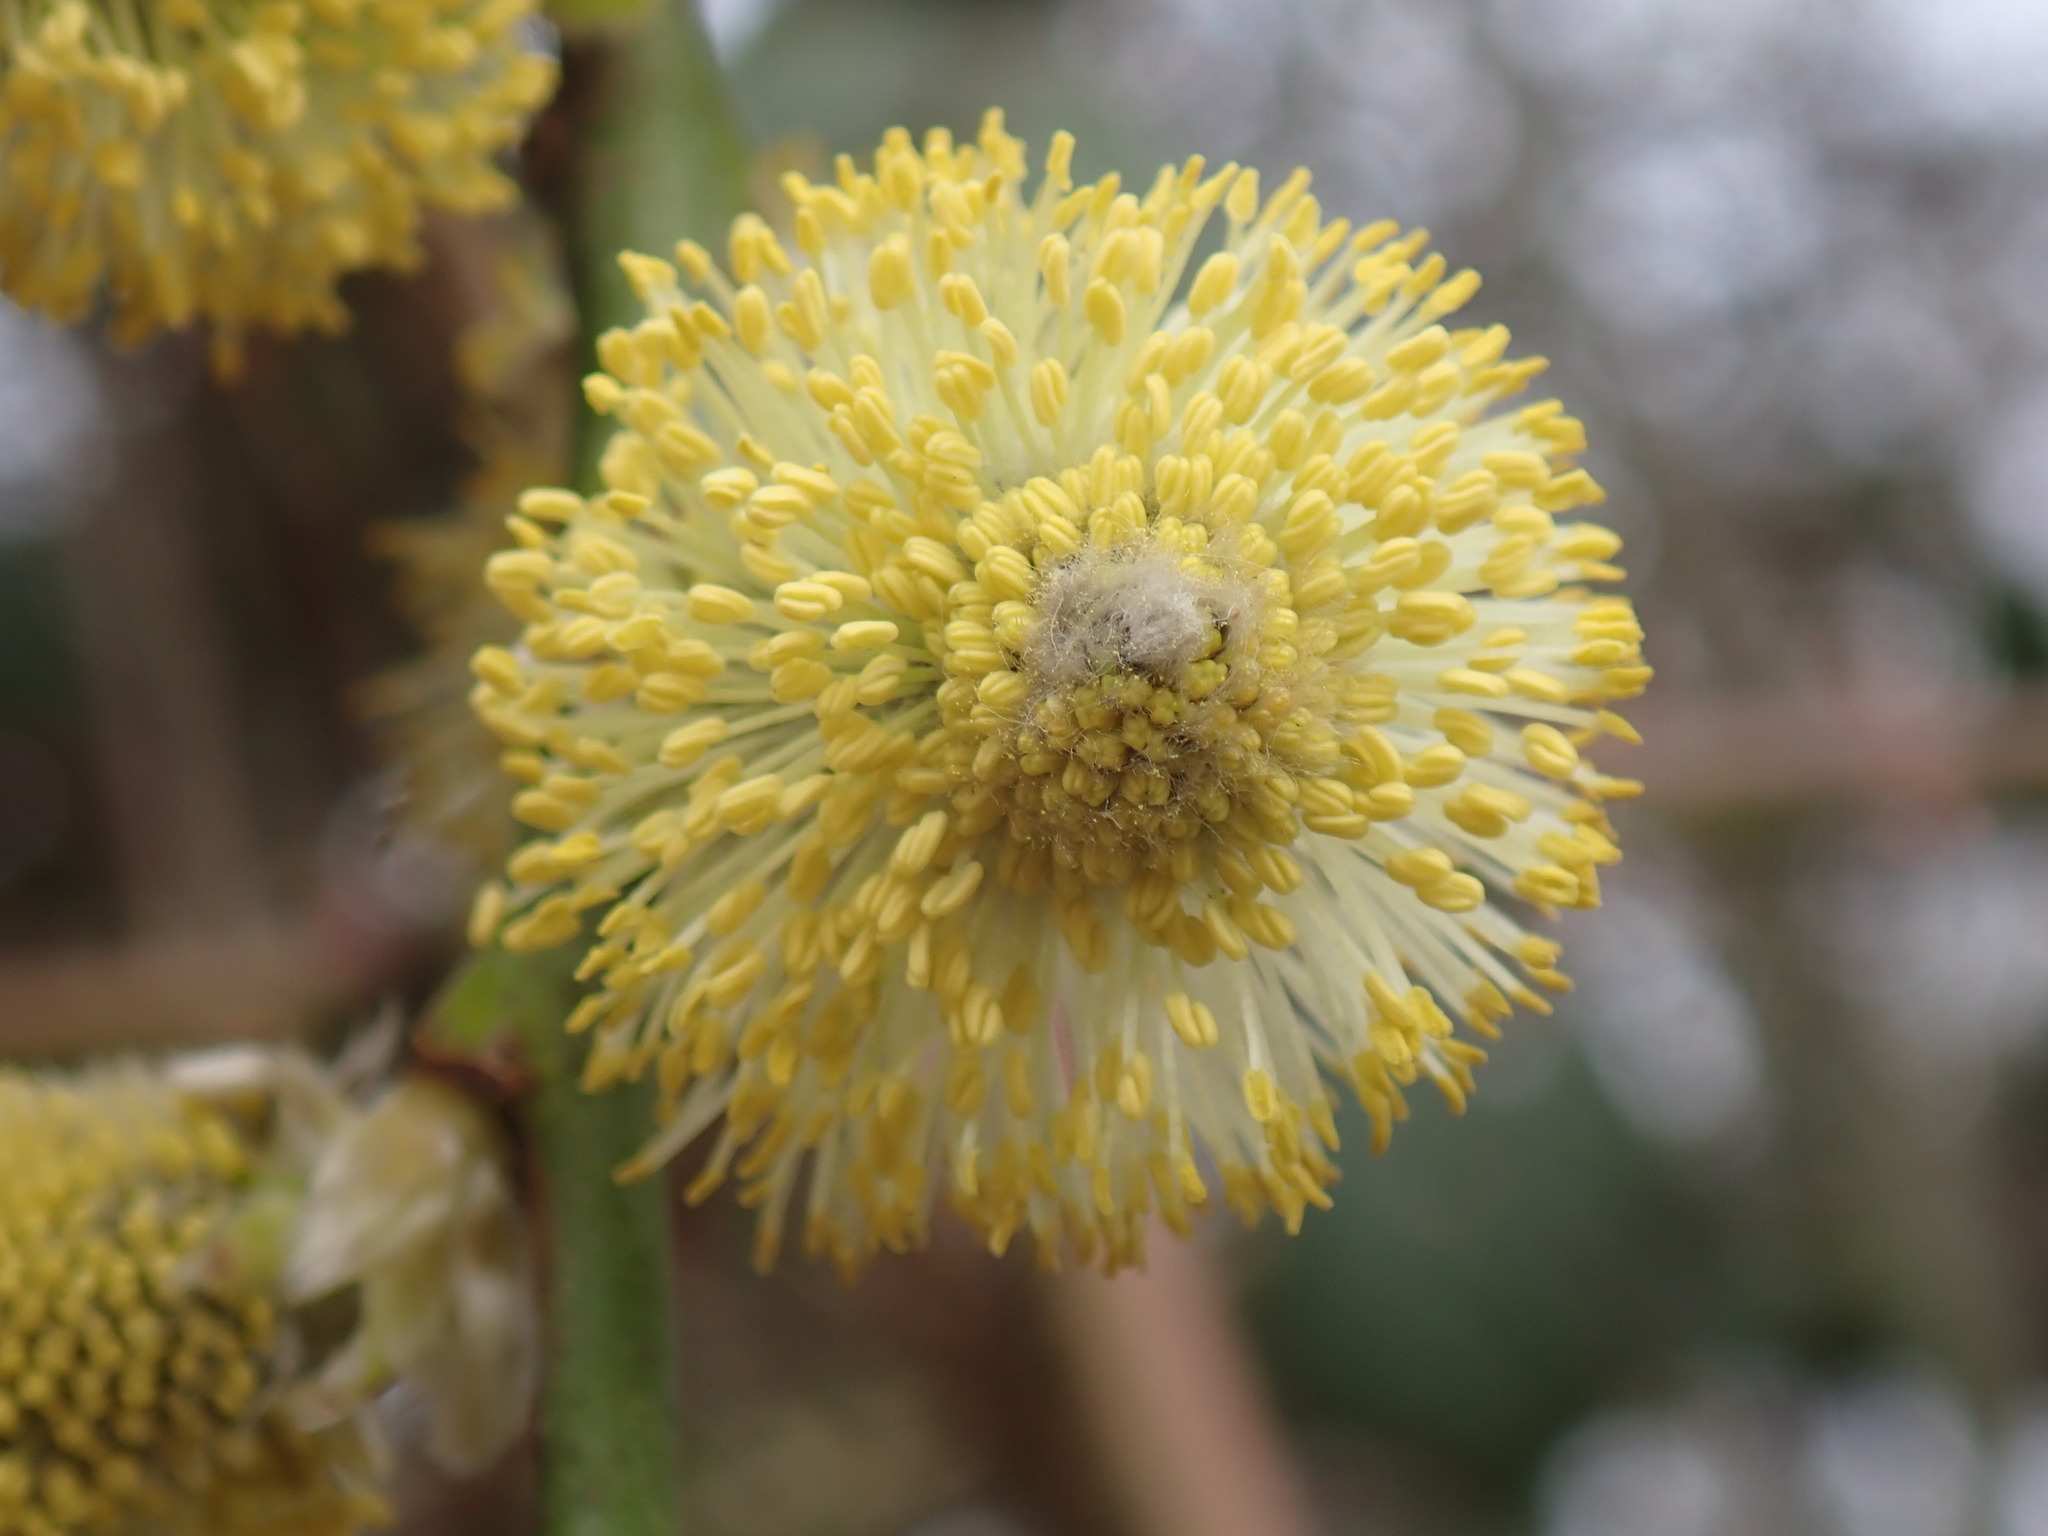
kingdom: Plantae
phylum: Tracheophyta
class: Magnoliopsida
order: Malpighiales
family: Salicaceae
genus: Salix
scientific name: Salix caprea
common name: Goat willow
